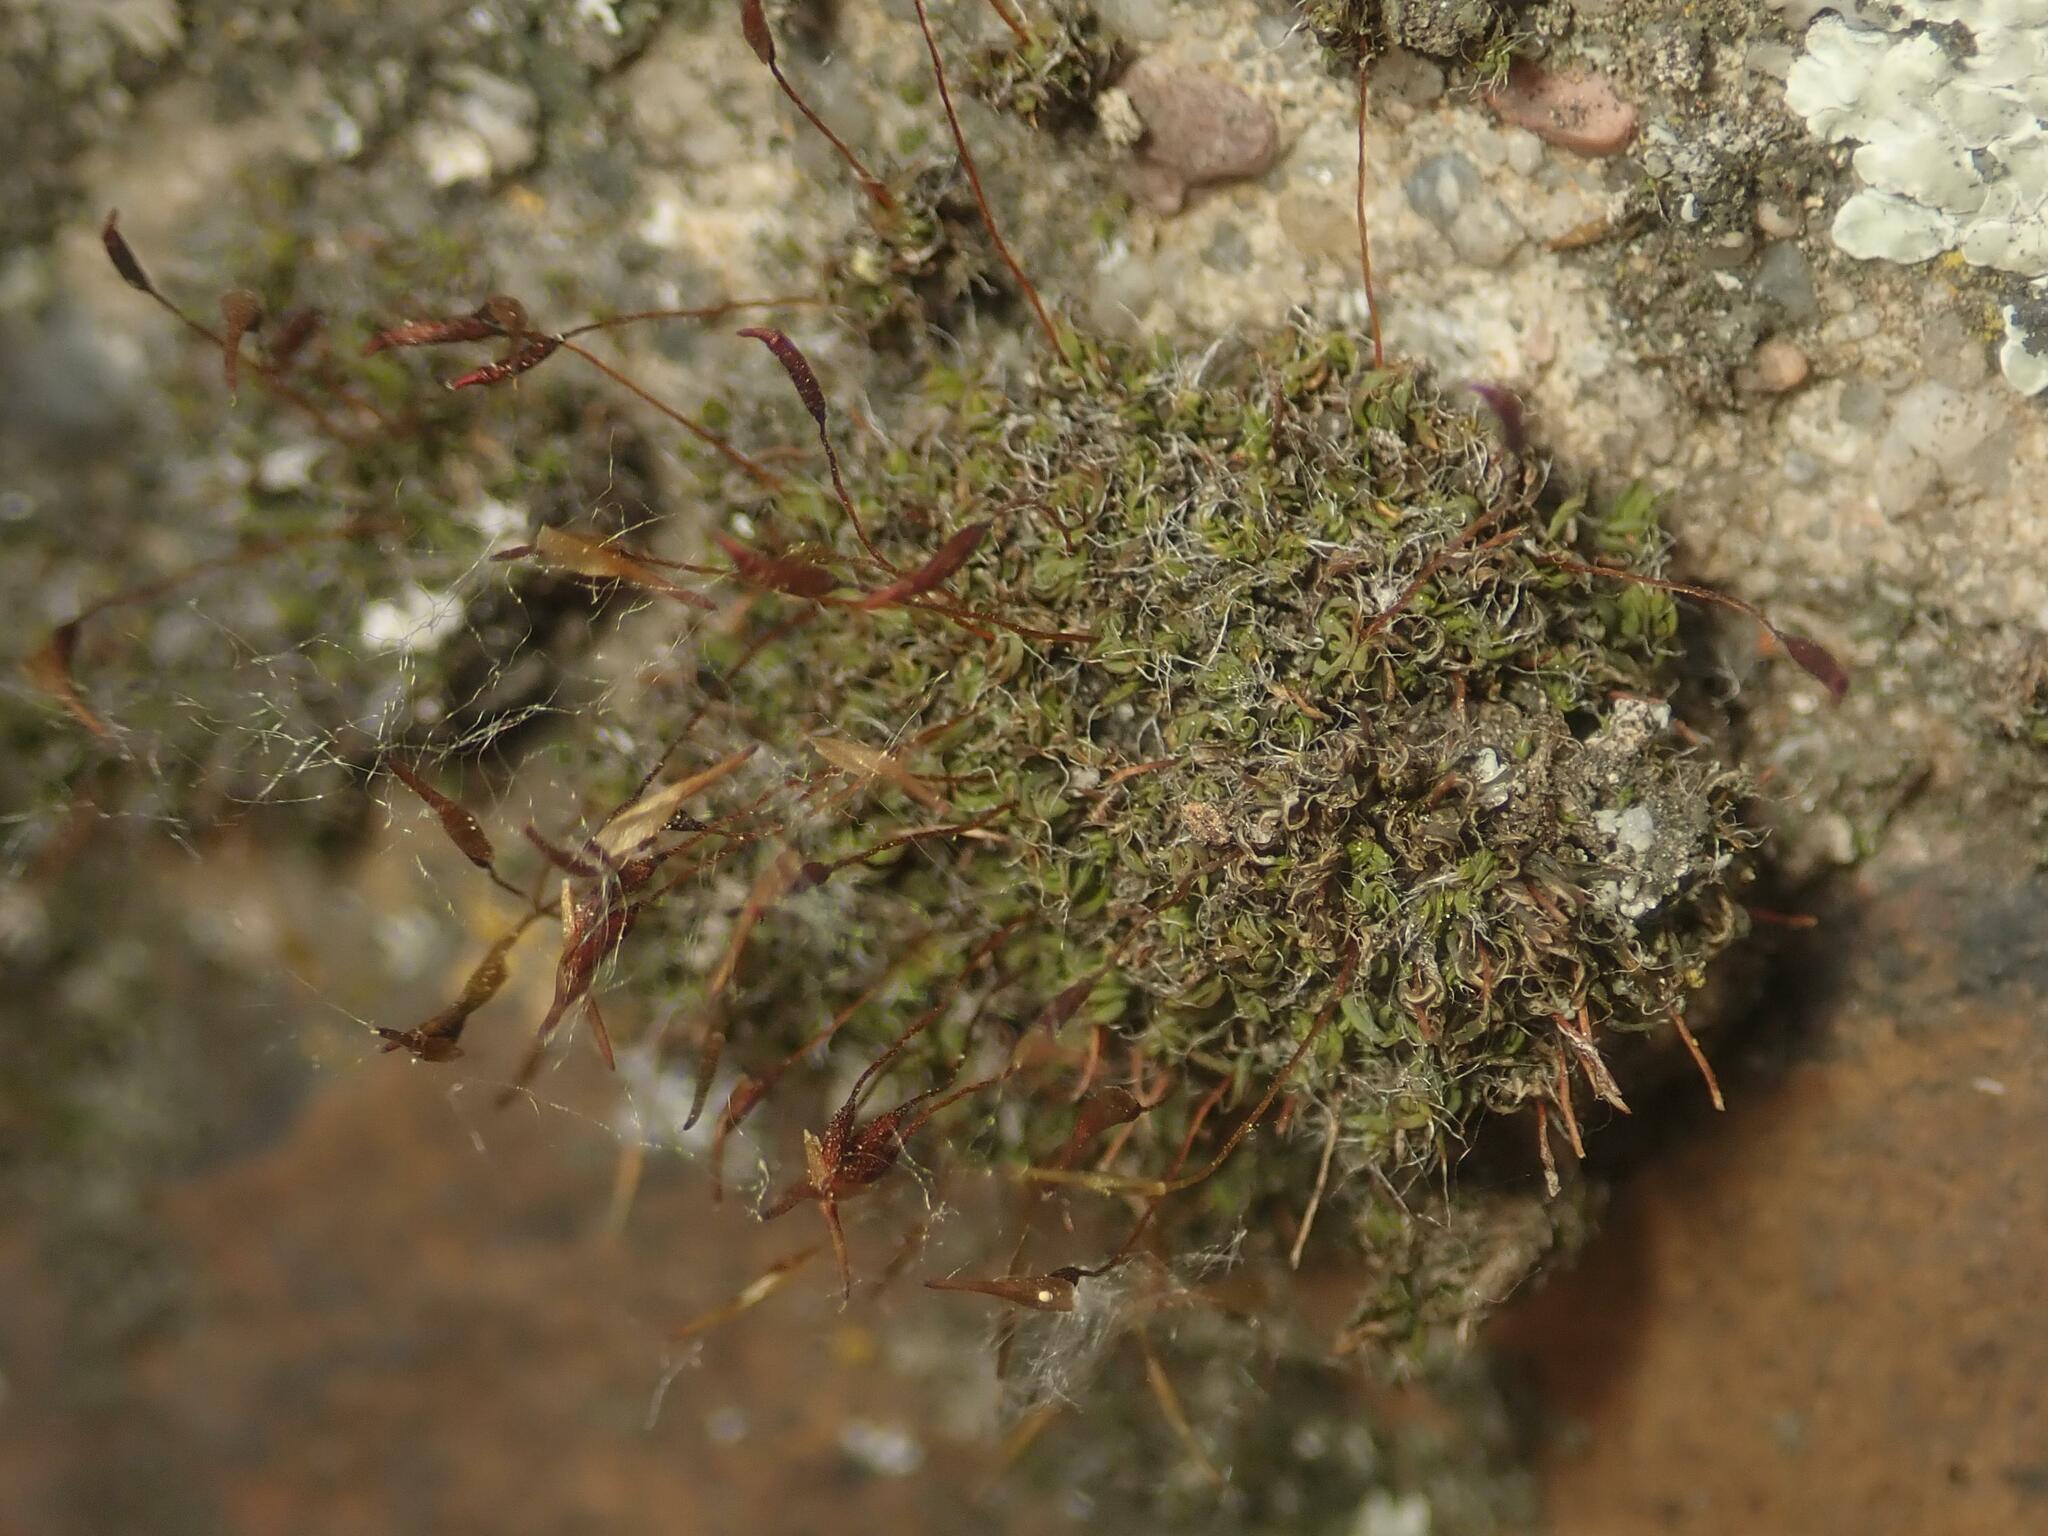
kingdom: Plantae
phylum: Bryophyta
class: Bryopsida
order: Pottiales
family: Pottiaceae
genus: Tortula
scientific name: Tortula muralis
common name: Wall screw-moss
